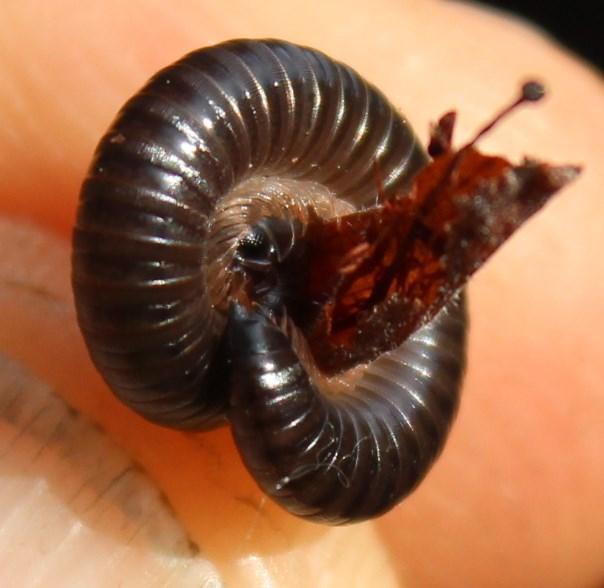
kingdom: Animalia
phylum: Arthropoda
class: Diplopoda
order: Julida
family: Julidae
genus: Ommatoiulus
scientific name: Ommatoiulus moreleti
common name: Portuguese millipede
